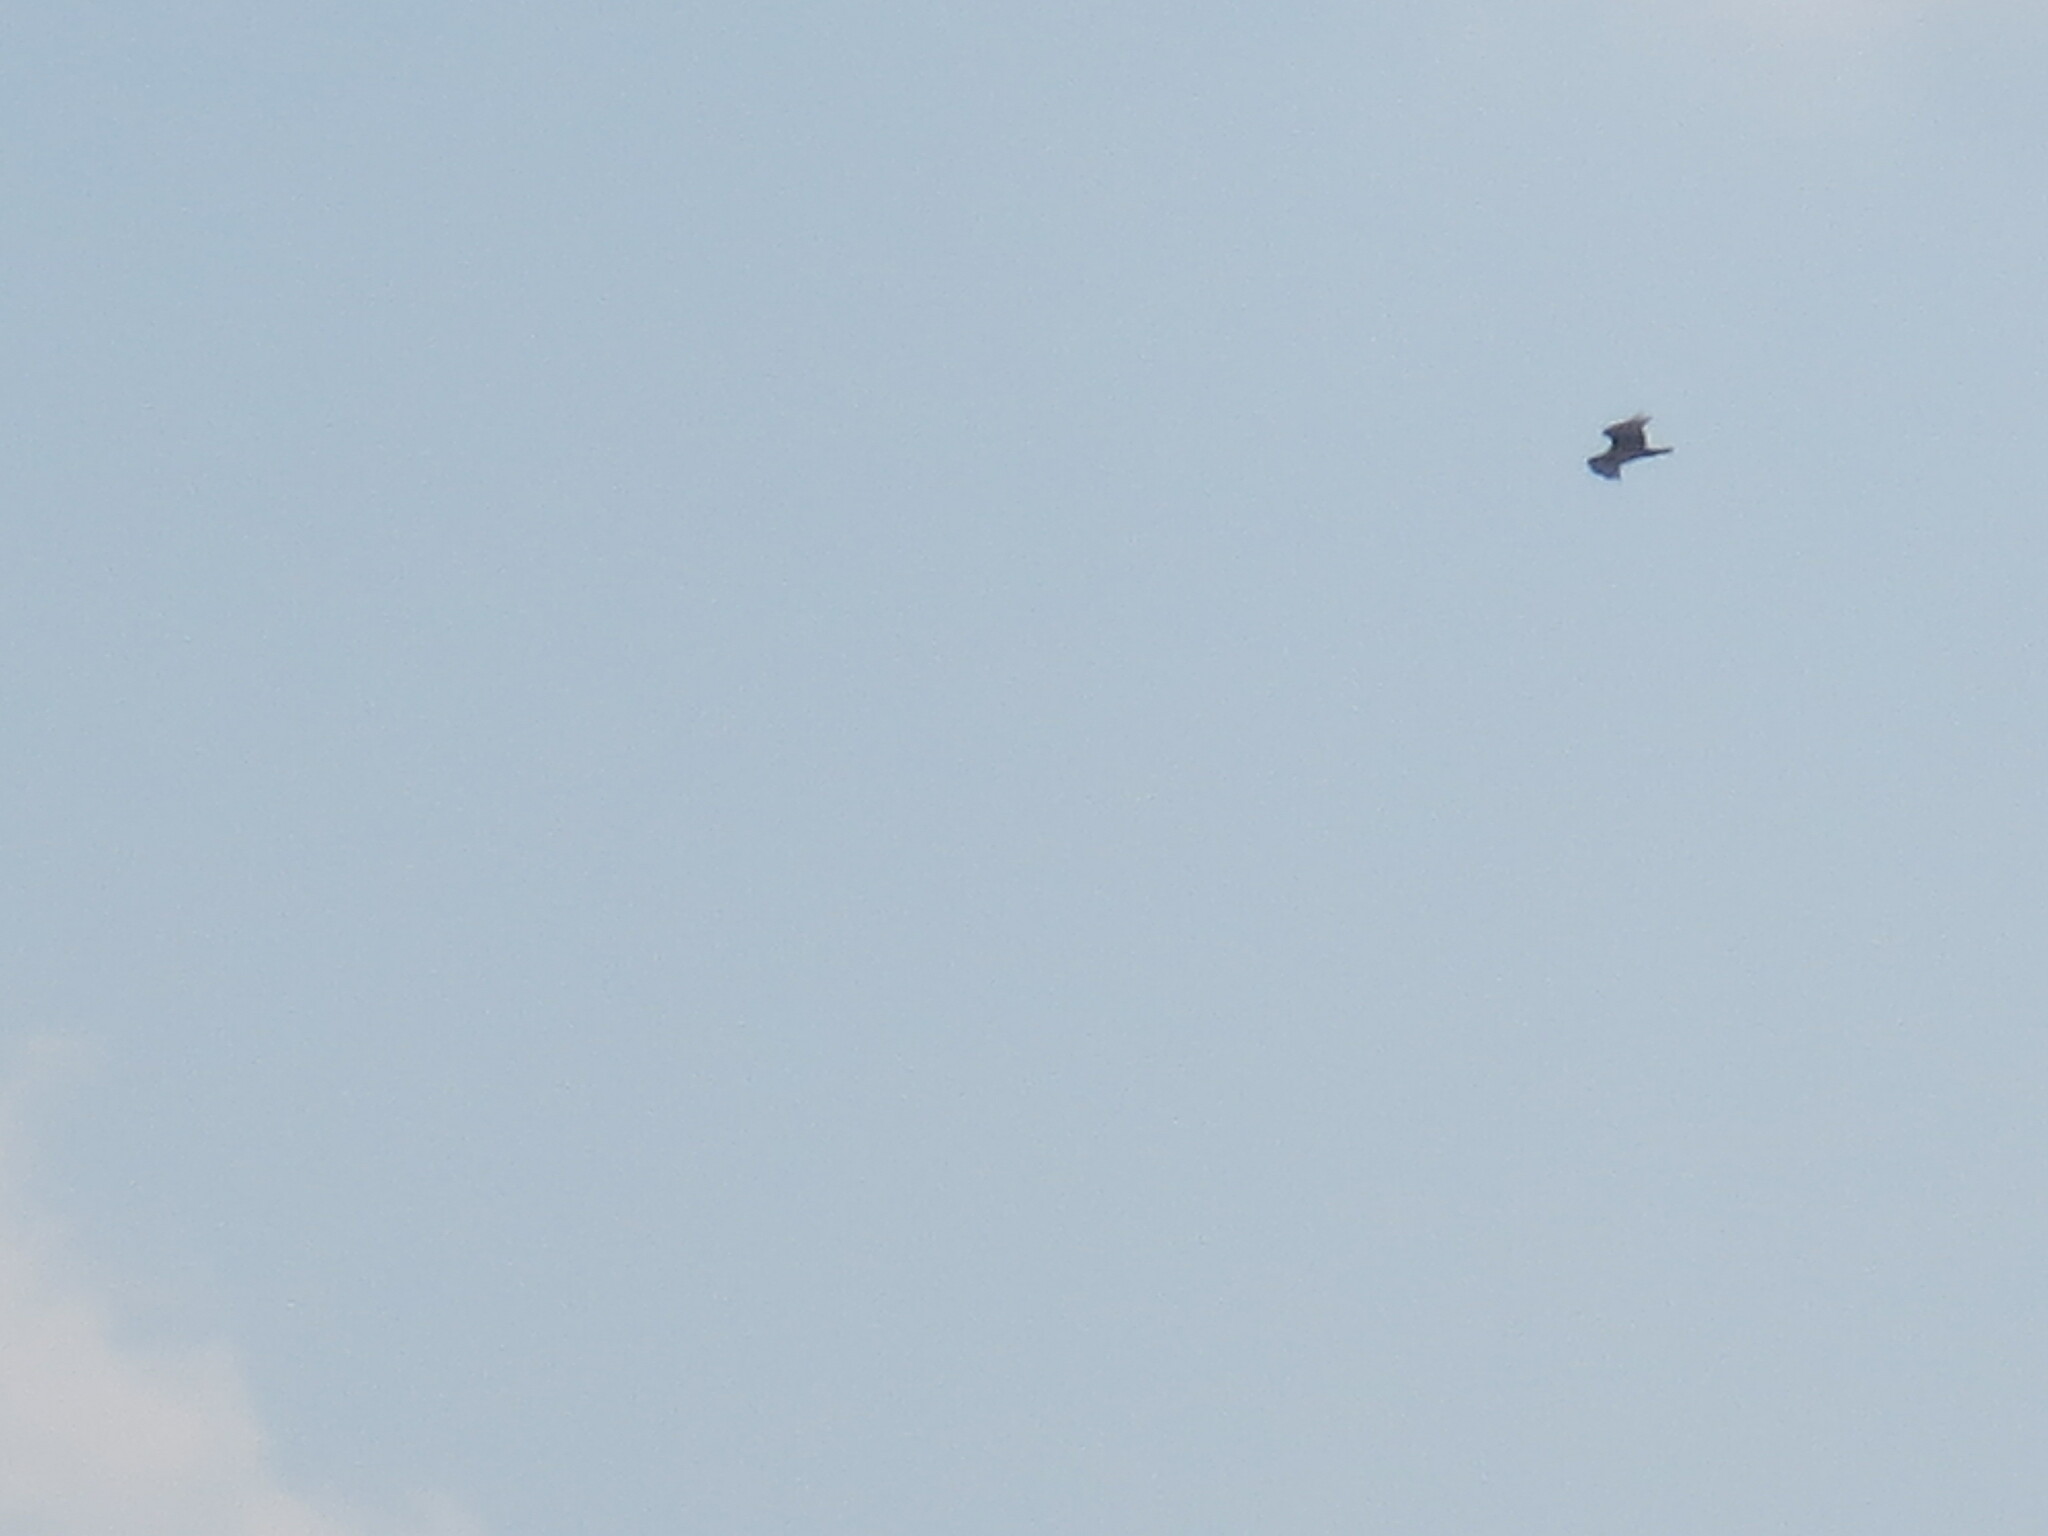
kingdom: Animalia
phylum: Chordata
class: Aves
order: Accipitriformes
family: Pandionidae
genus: Pandion
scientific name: Pandion haliaetus
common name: Osprey
